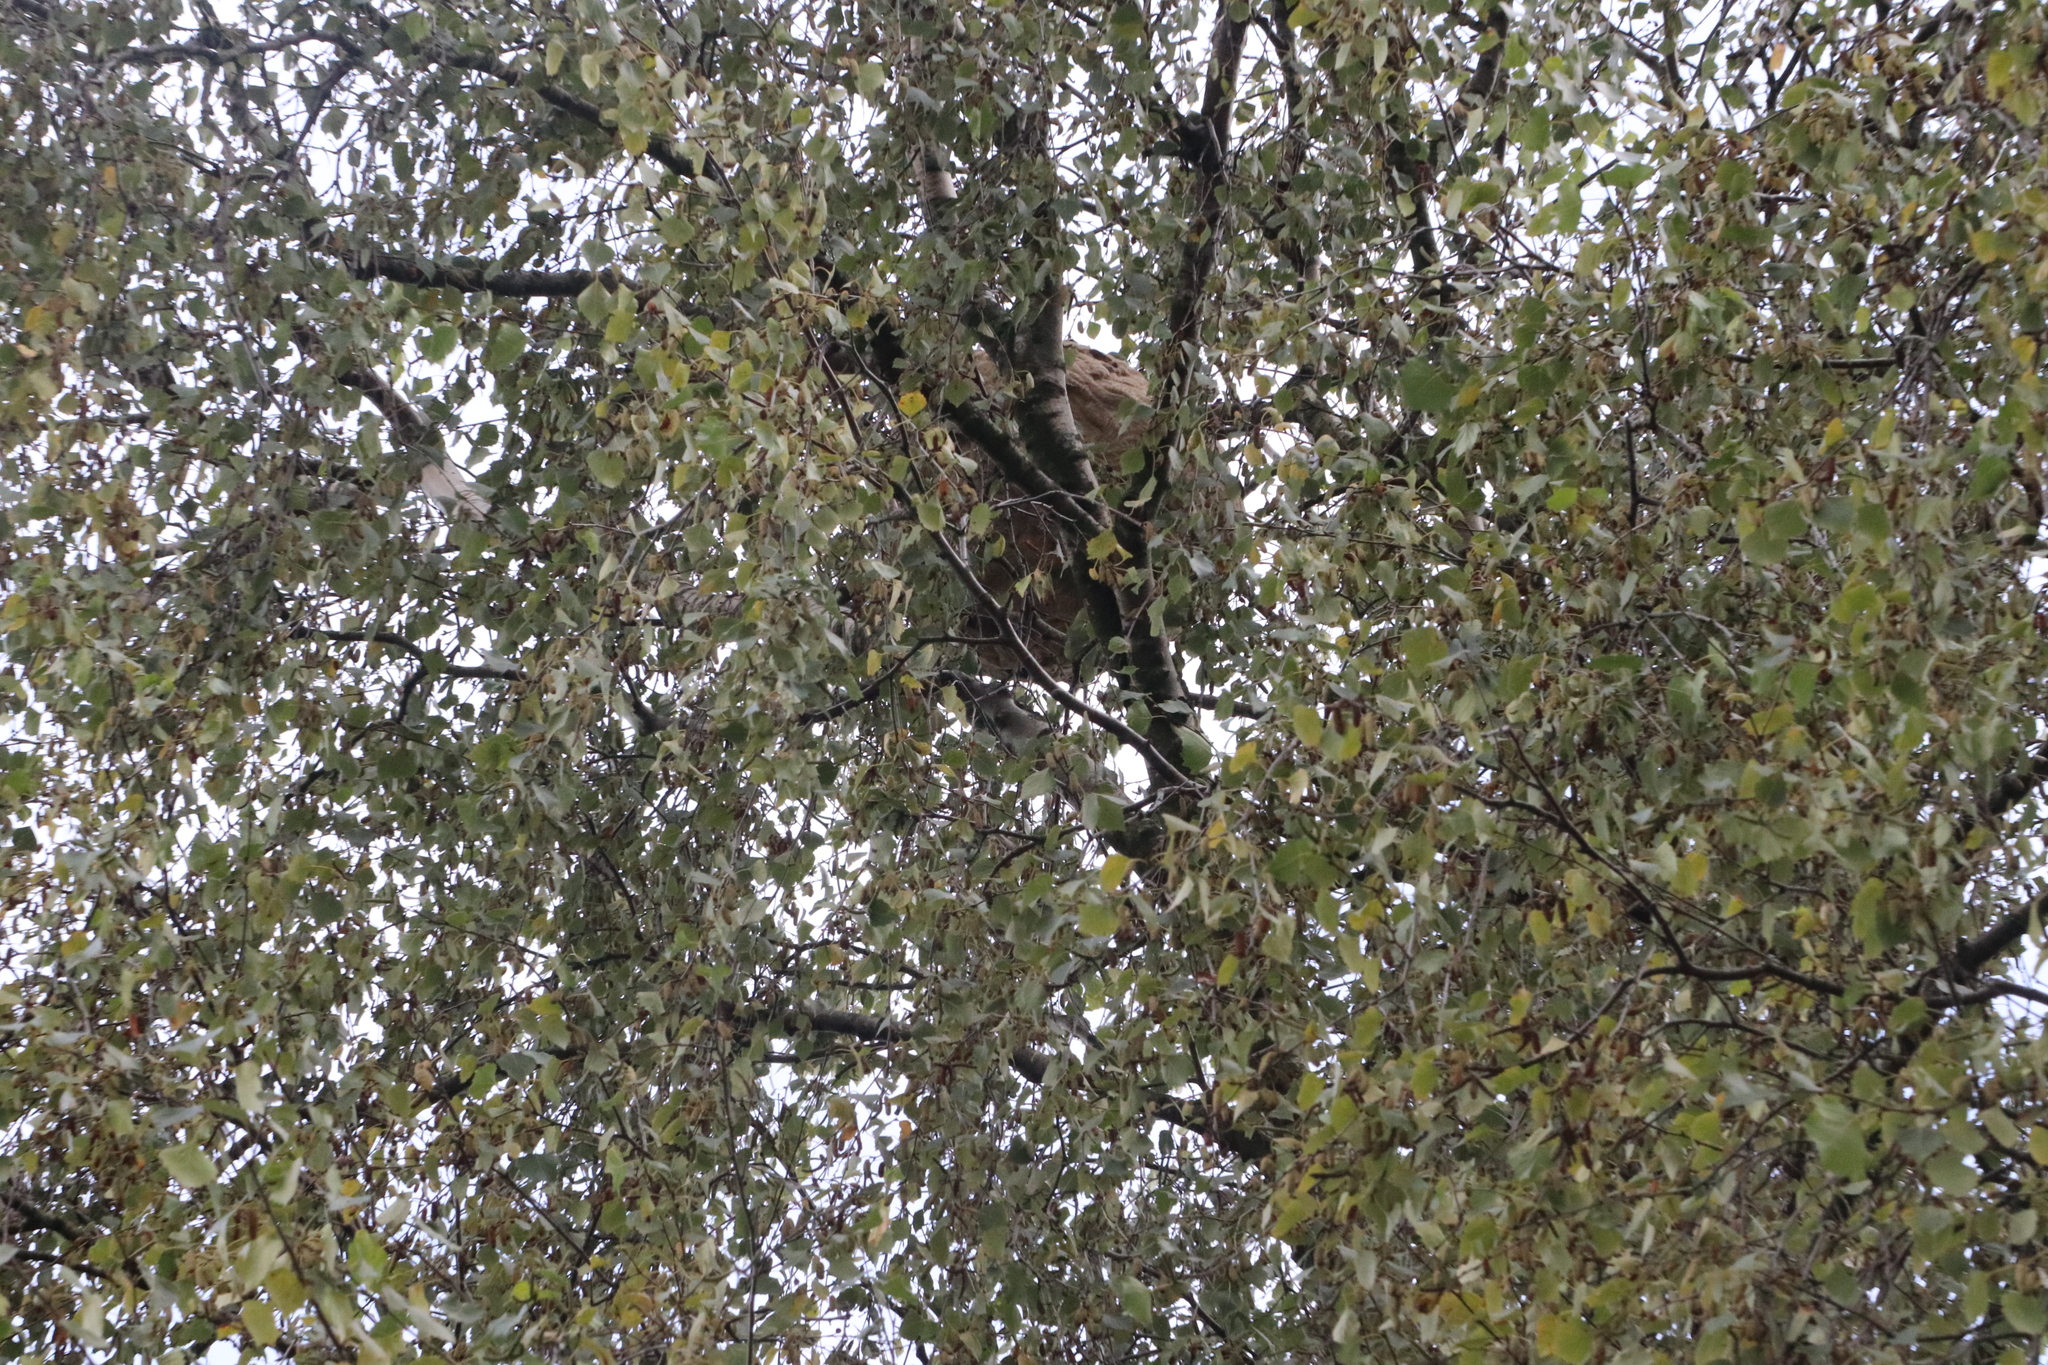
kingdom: Animalia
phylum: Arthropoda
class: Insecta
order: Hymenoptera
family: Vespidae
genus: Vespa
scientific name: Vespa velutina
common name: Asian hornet
